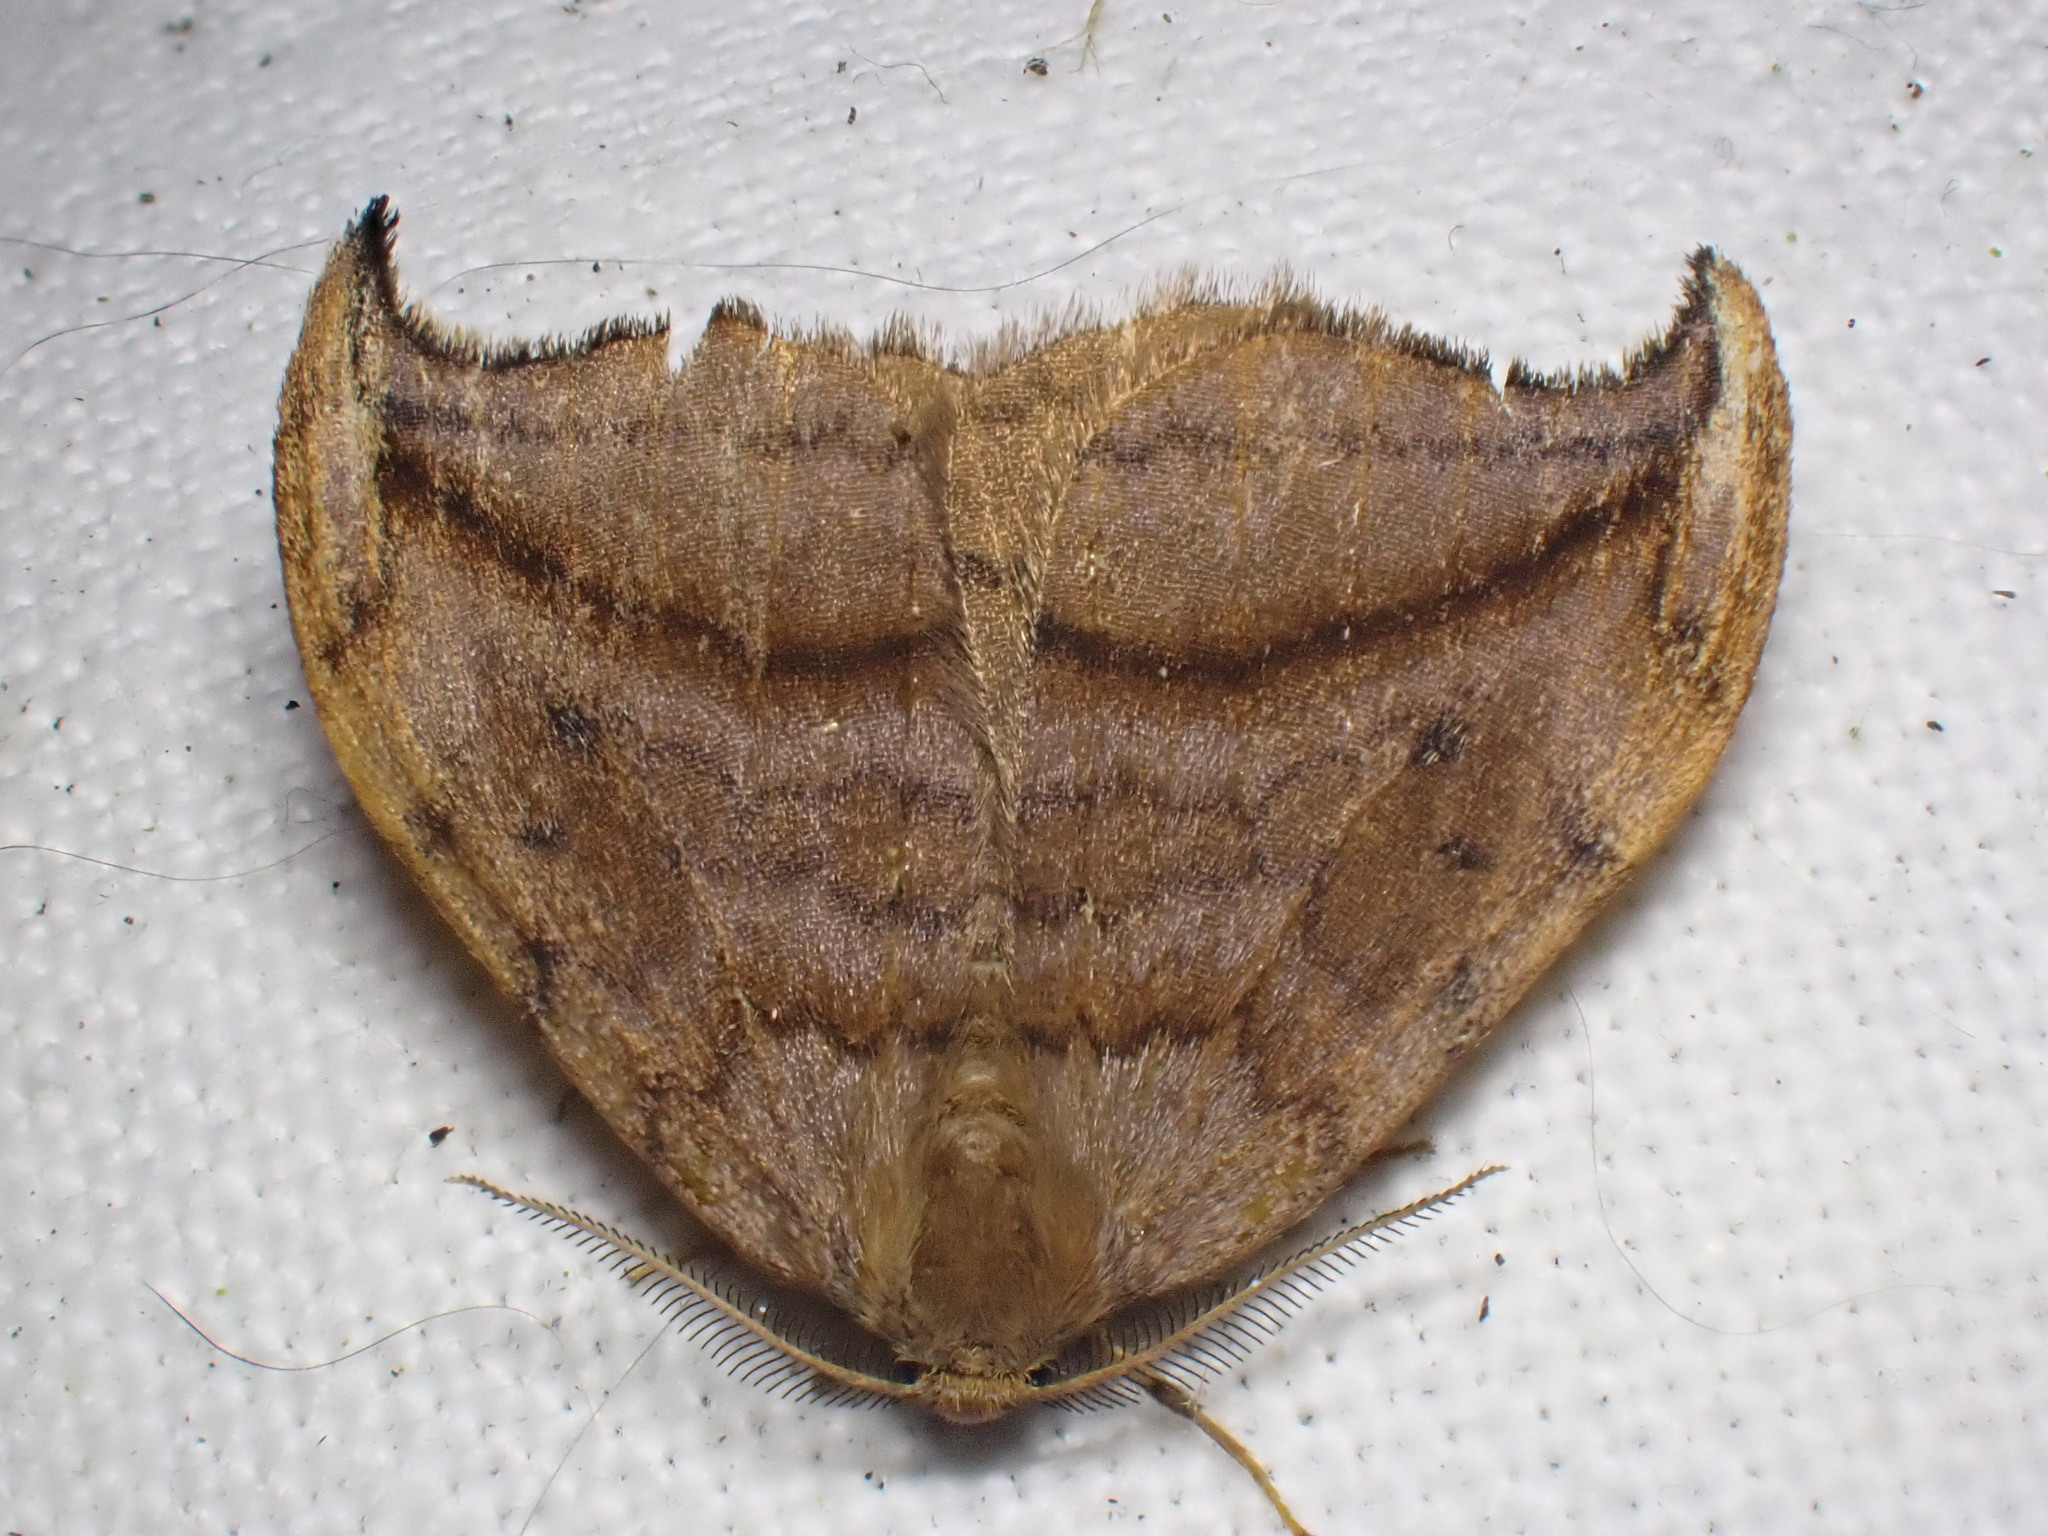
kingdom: Animalia
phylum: Arthropoda
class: Insecta
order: Lepidoptera
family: Drepanidae
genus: Drepana
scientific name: Drepana curvatula
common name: Dusky hook-tip
